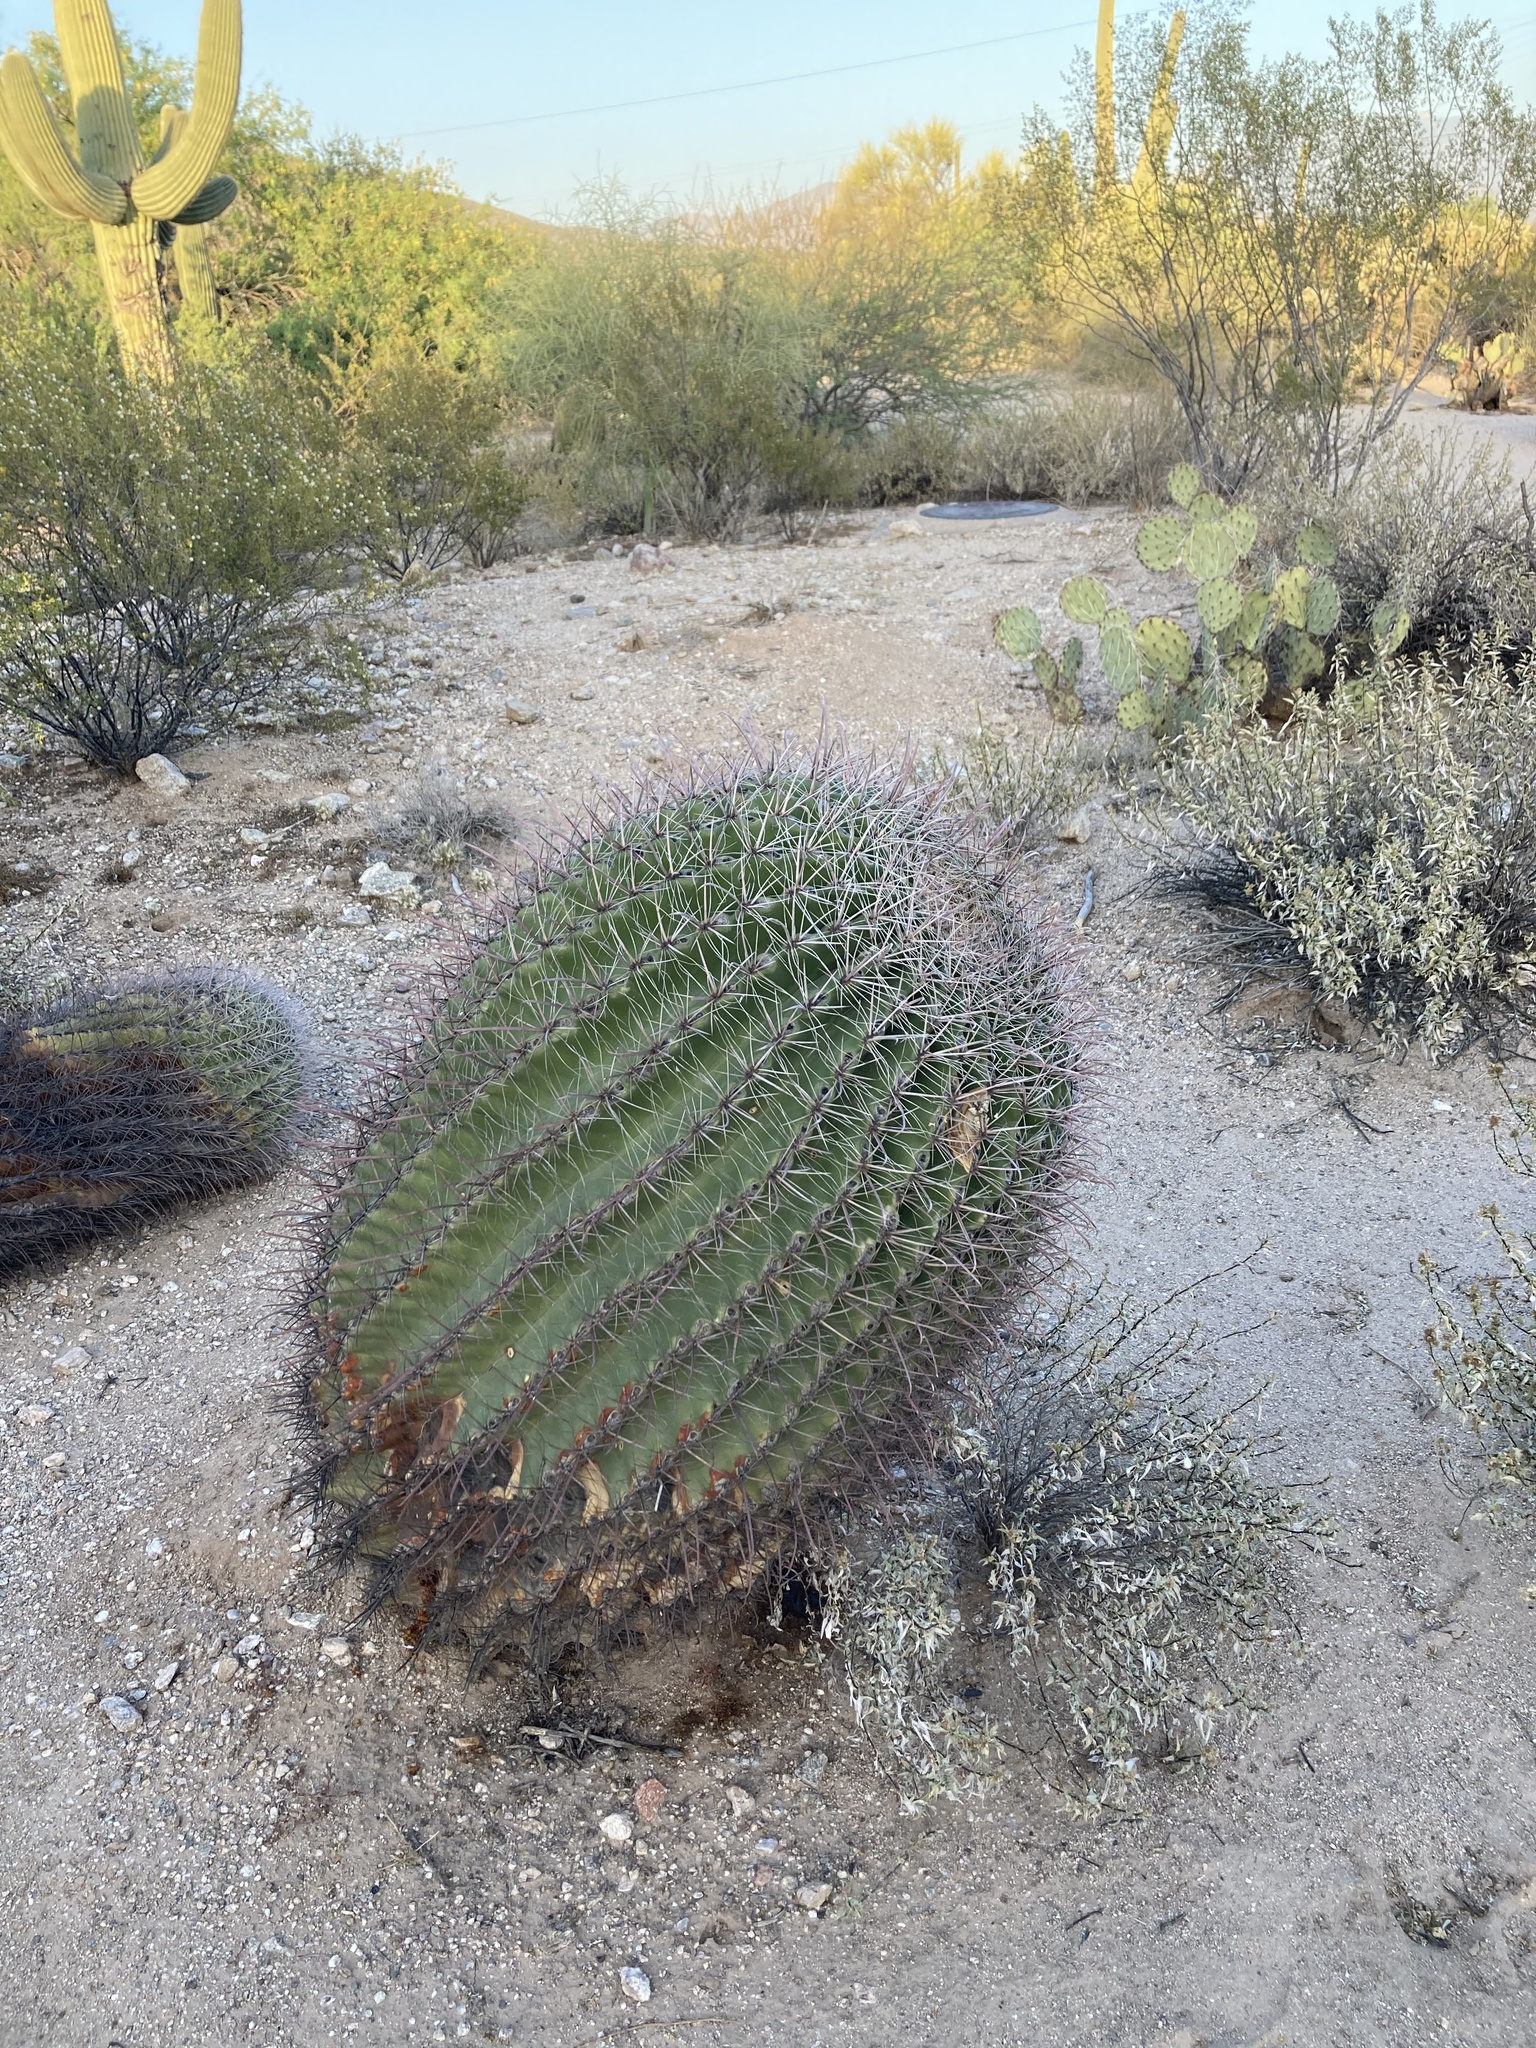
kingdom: Plantae
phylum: Tracheophyta
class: Magnoliopsida
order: Caryophyllales
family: Cactaceae
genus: Ferocactus
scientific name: Ferocactus wislizeni
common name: Candy barrel cactus
